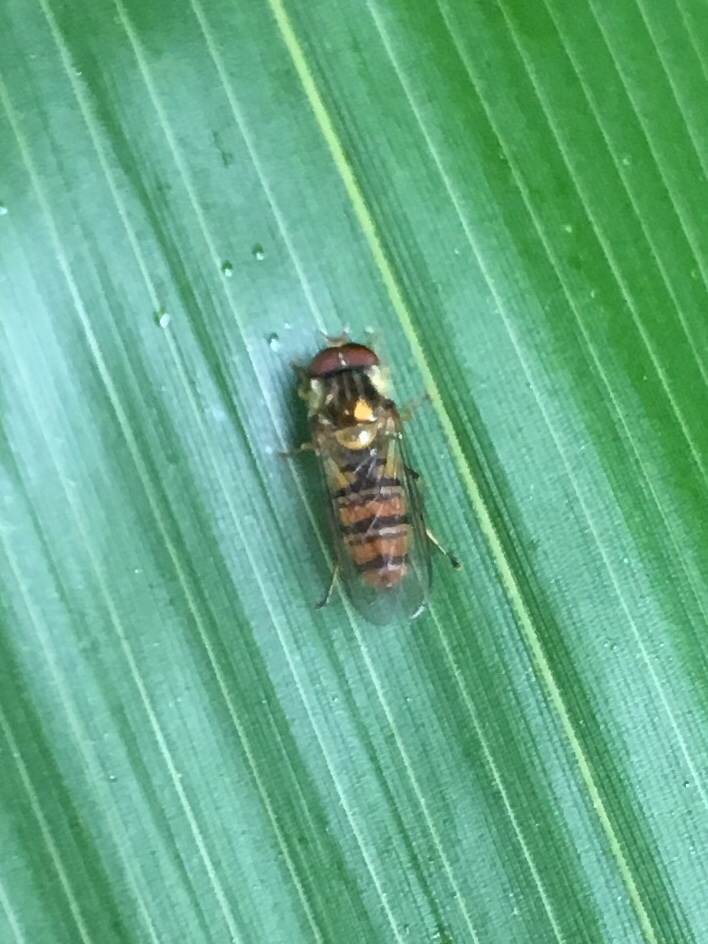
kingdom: Animalia
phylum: Arthropoda
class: Insecta
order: Diptera
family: Syrphidae
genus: Episyrphus
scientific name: Episyrphus balteatus
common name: Marmalade hoverfly
